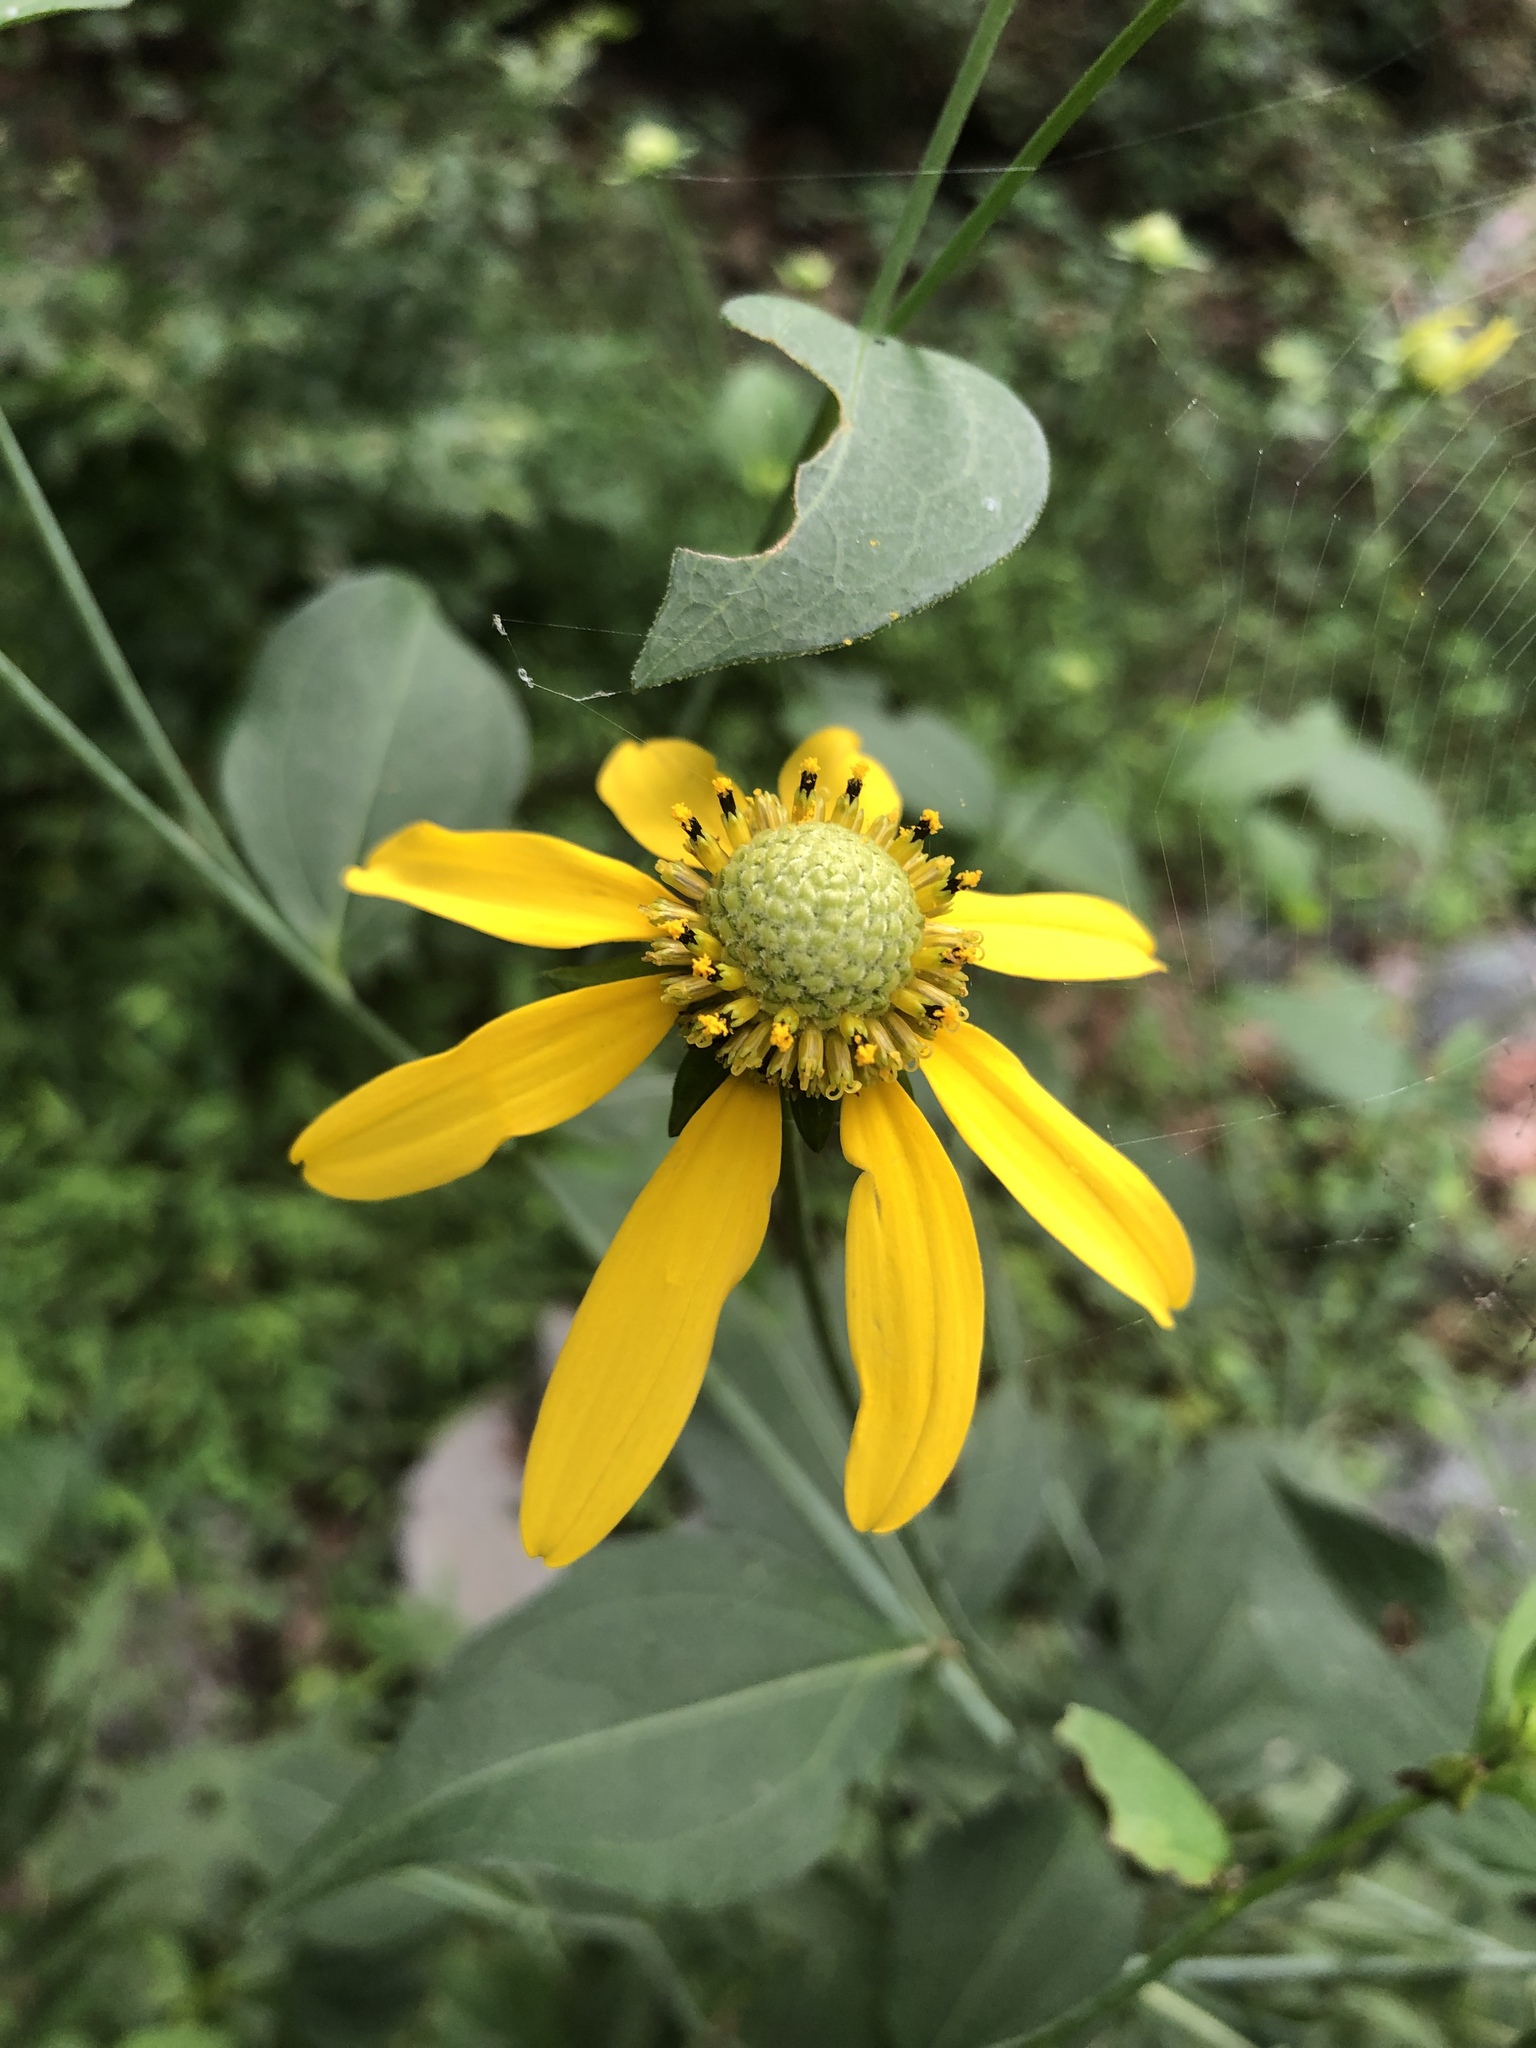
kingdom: Plantae
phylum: Tracheophyta
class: Magnoliopsida
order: Asterales
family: Asteraceae
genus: Rudbeckia
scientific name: Rudbeckia laciniata
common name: Coneflower
